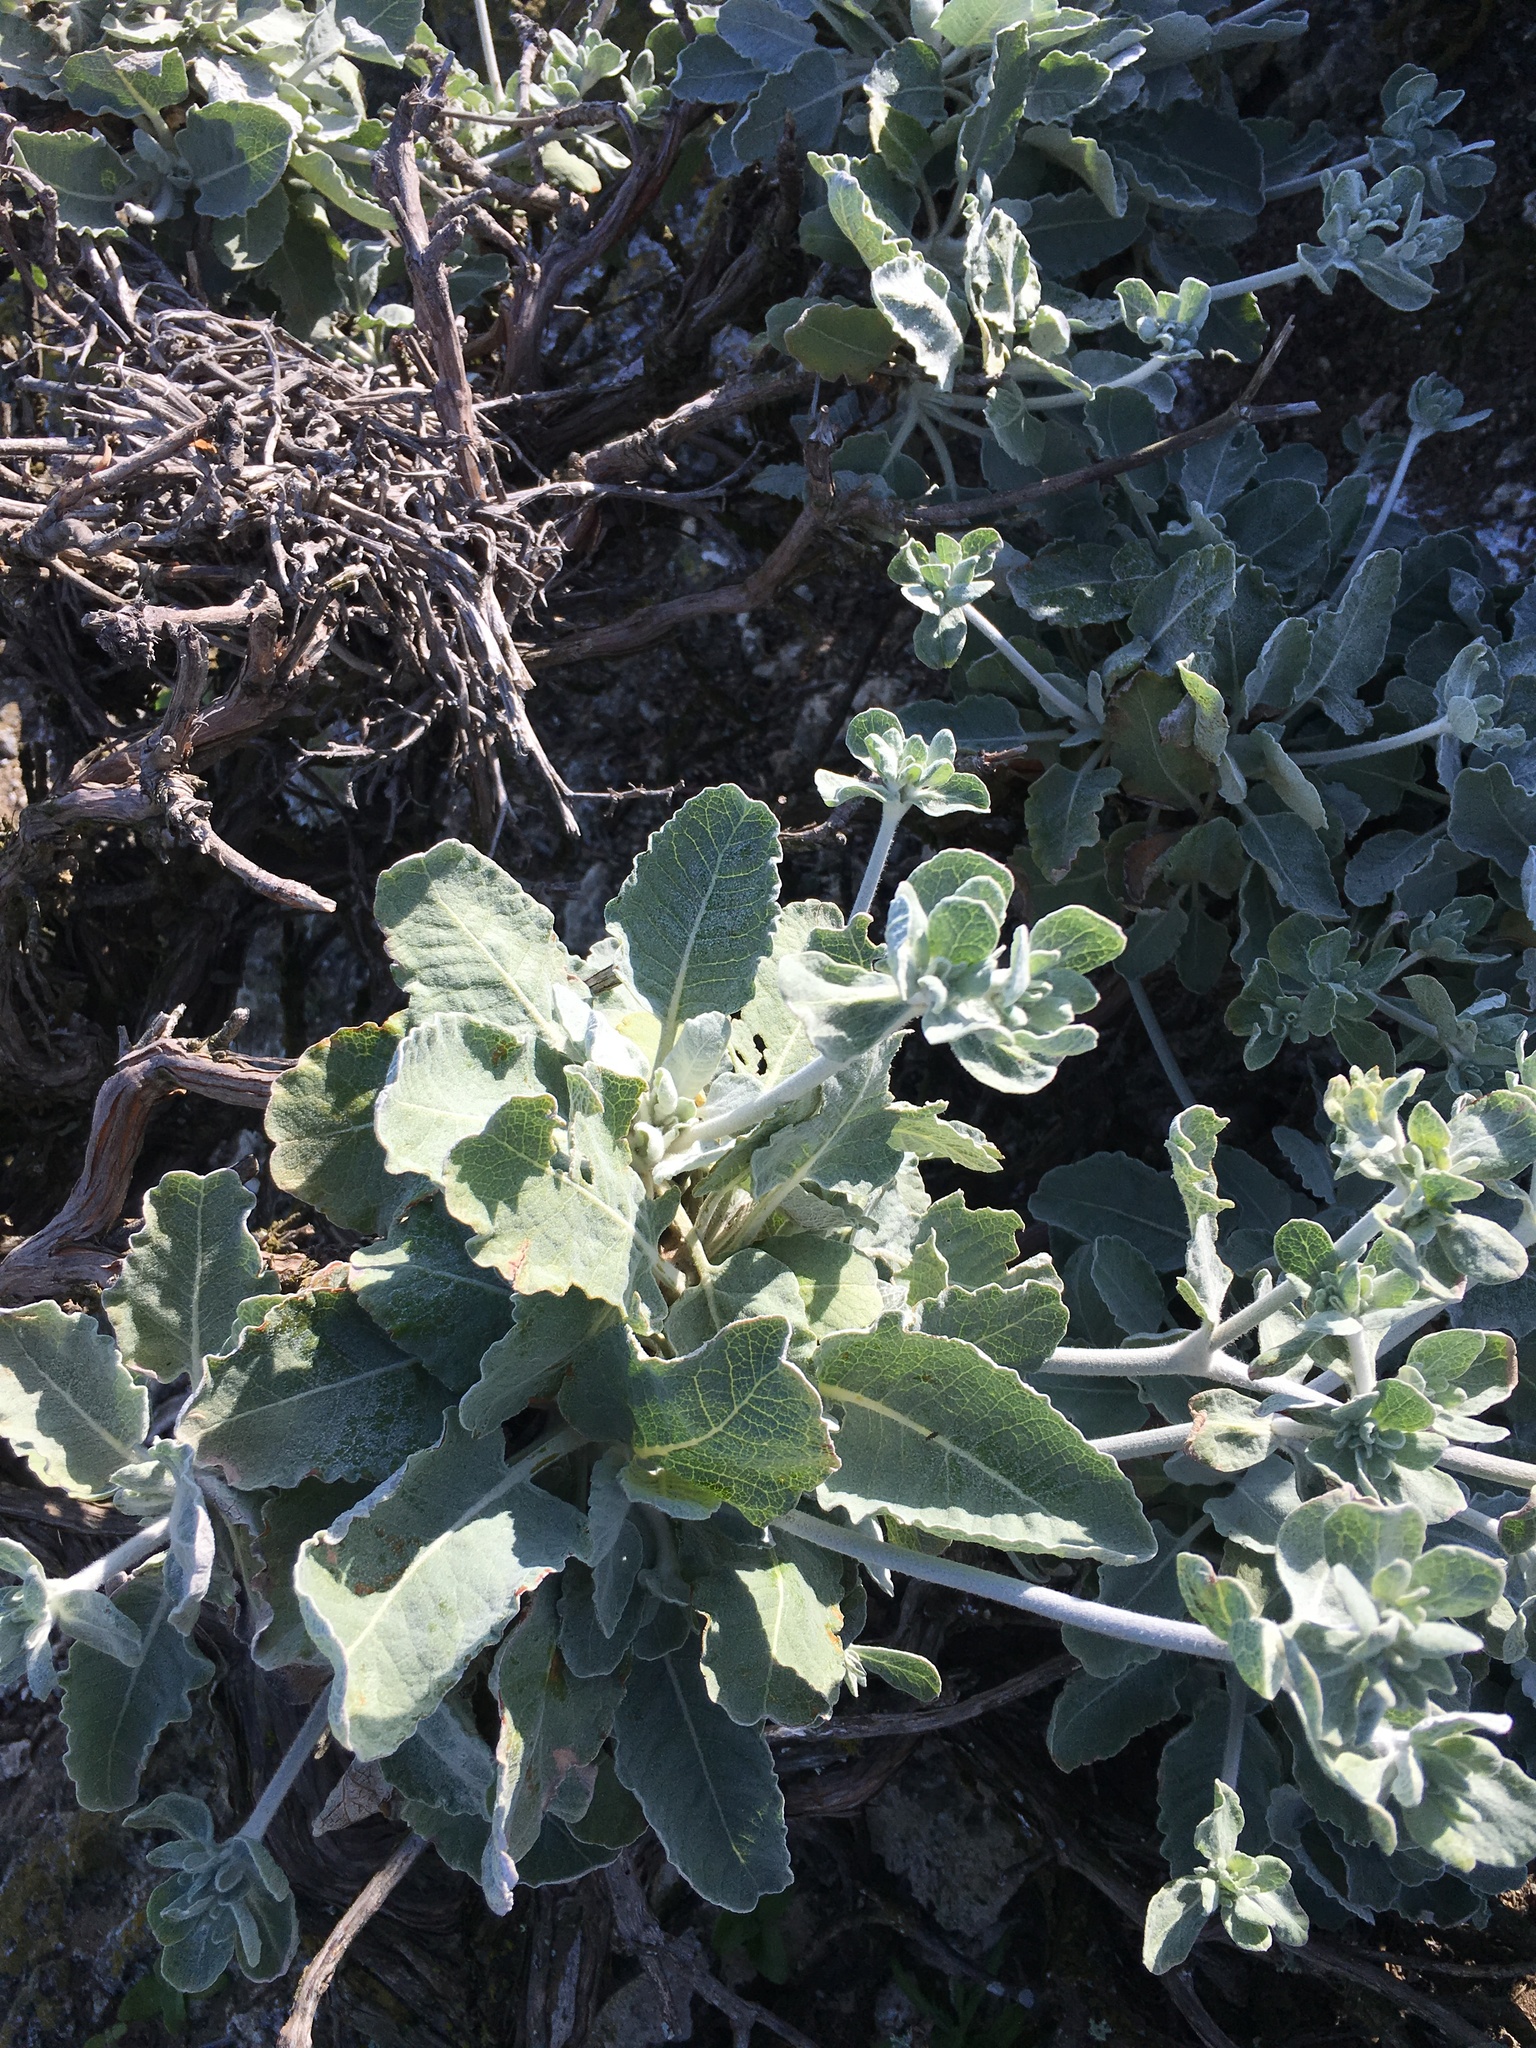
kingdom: Plantae
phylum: Tracheophyta
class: Magnoliopsida
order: Caryophyllales
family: Polygonaceae
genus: Eriogonum
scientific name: Eriogonum giganteum
